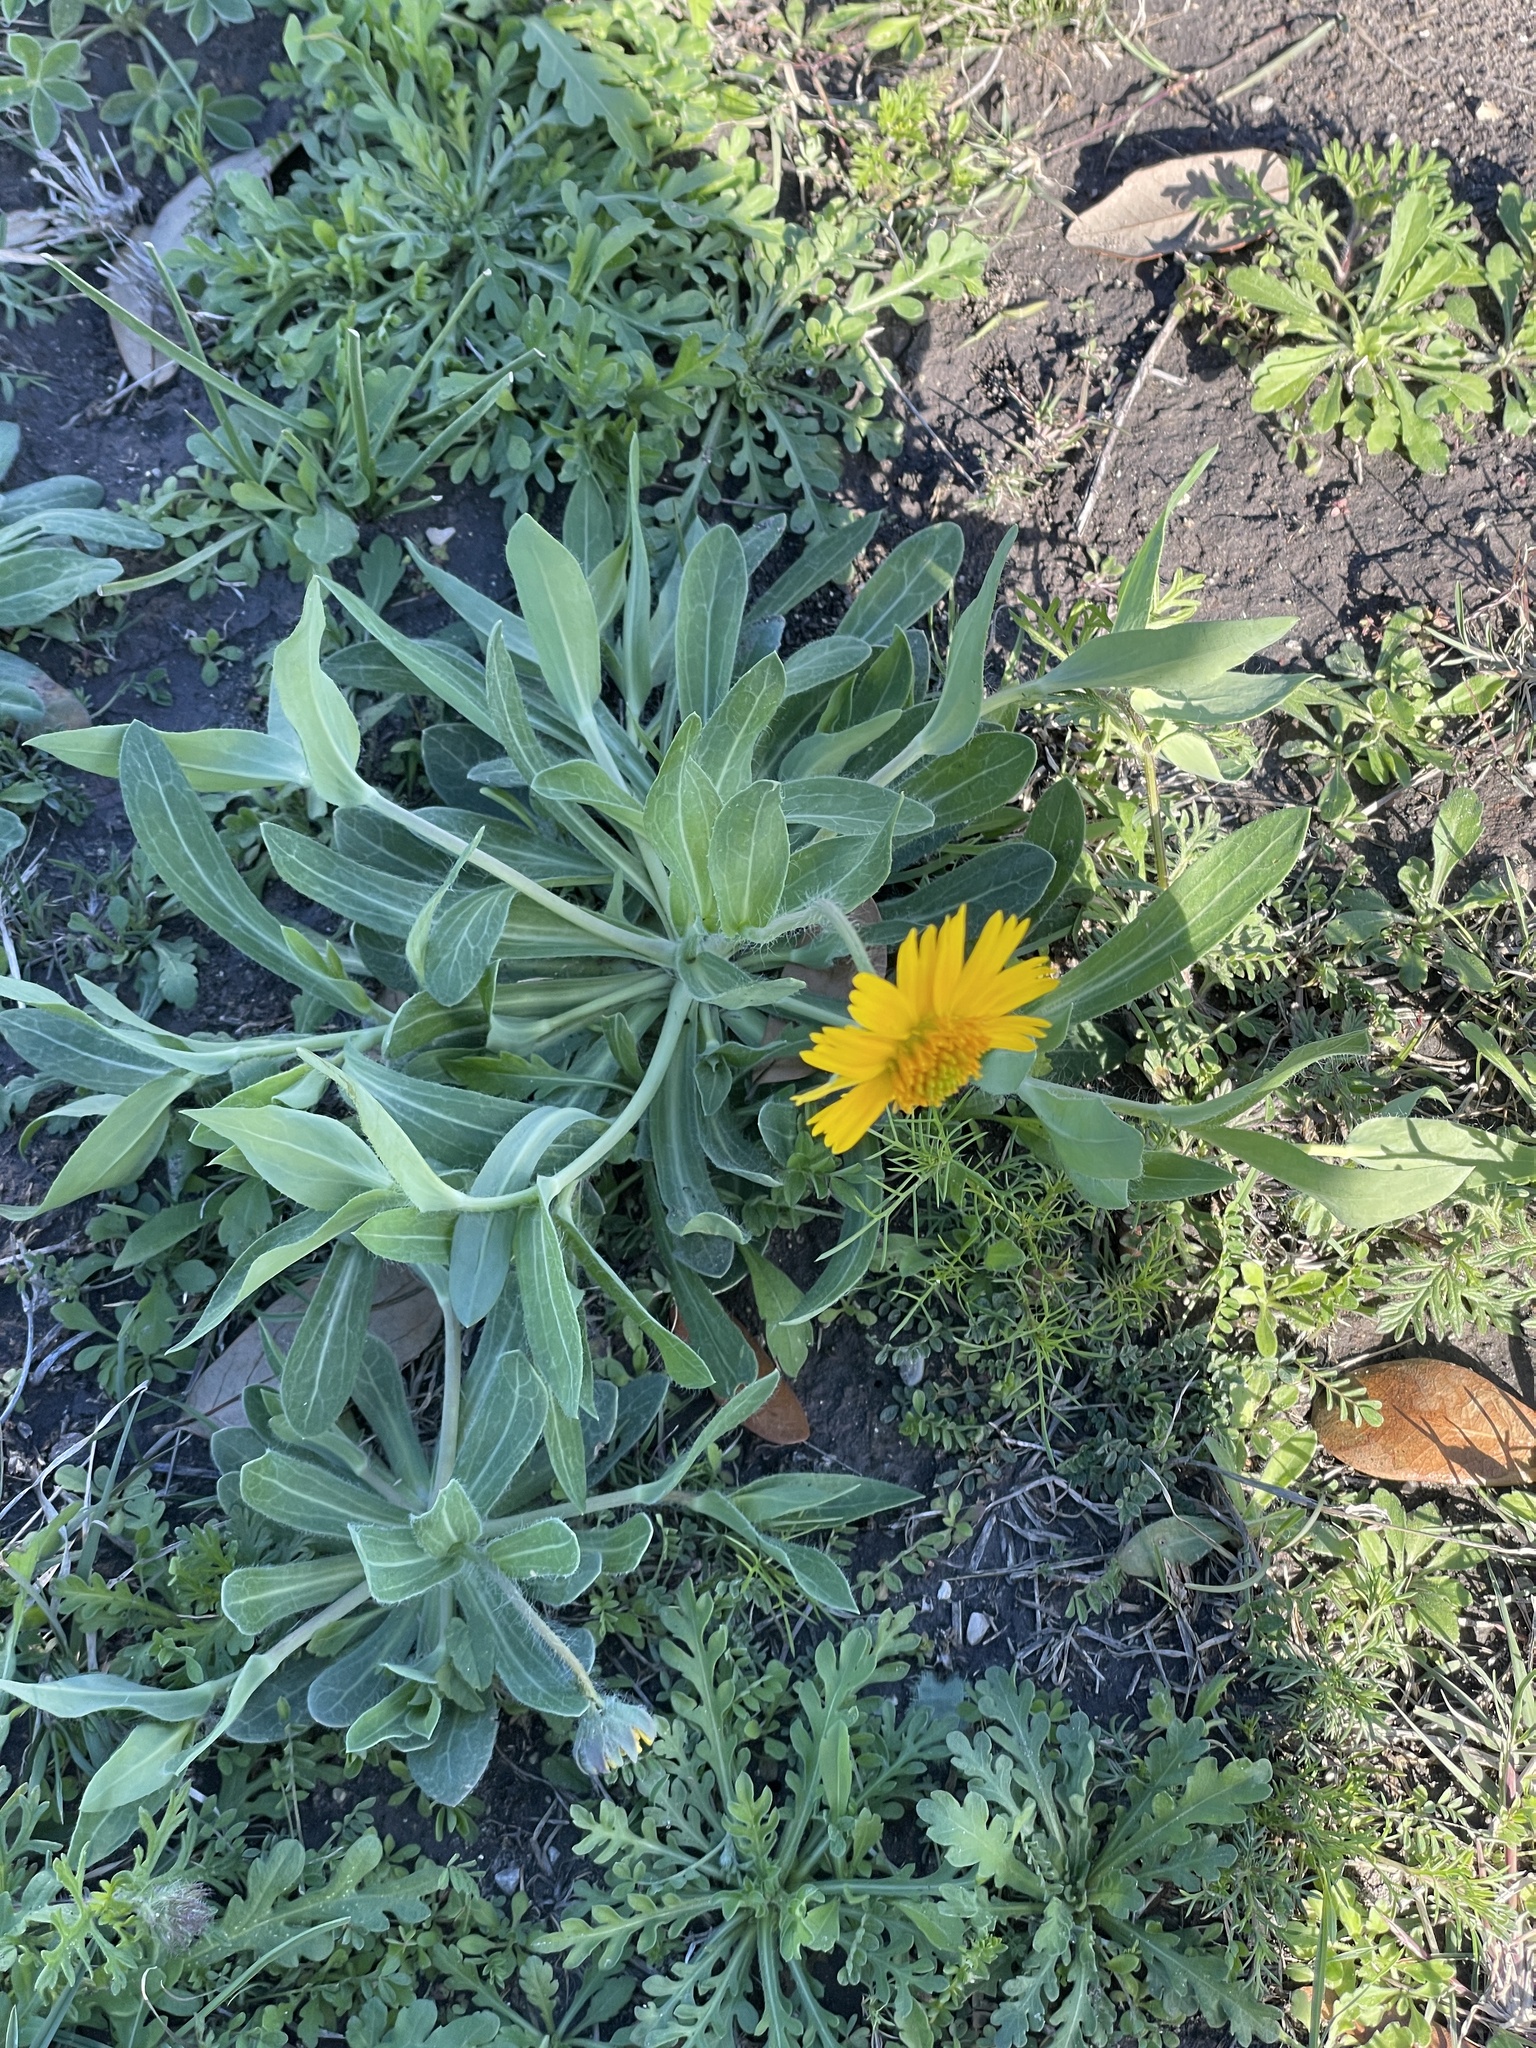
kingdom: Plantae
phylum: Tracheophyta
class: Magnoliopsida
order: Asterales
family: Asteraceae
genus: Amblyolepis
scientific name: Amblyolepis setigera
